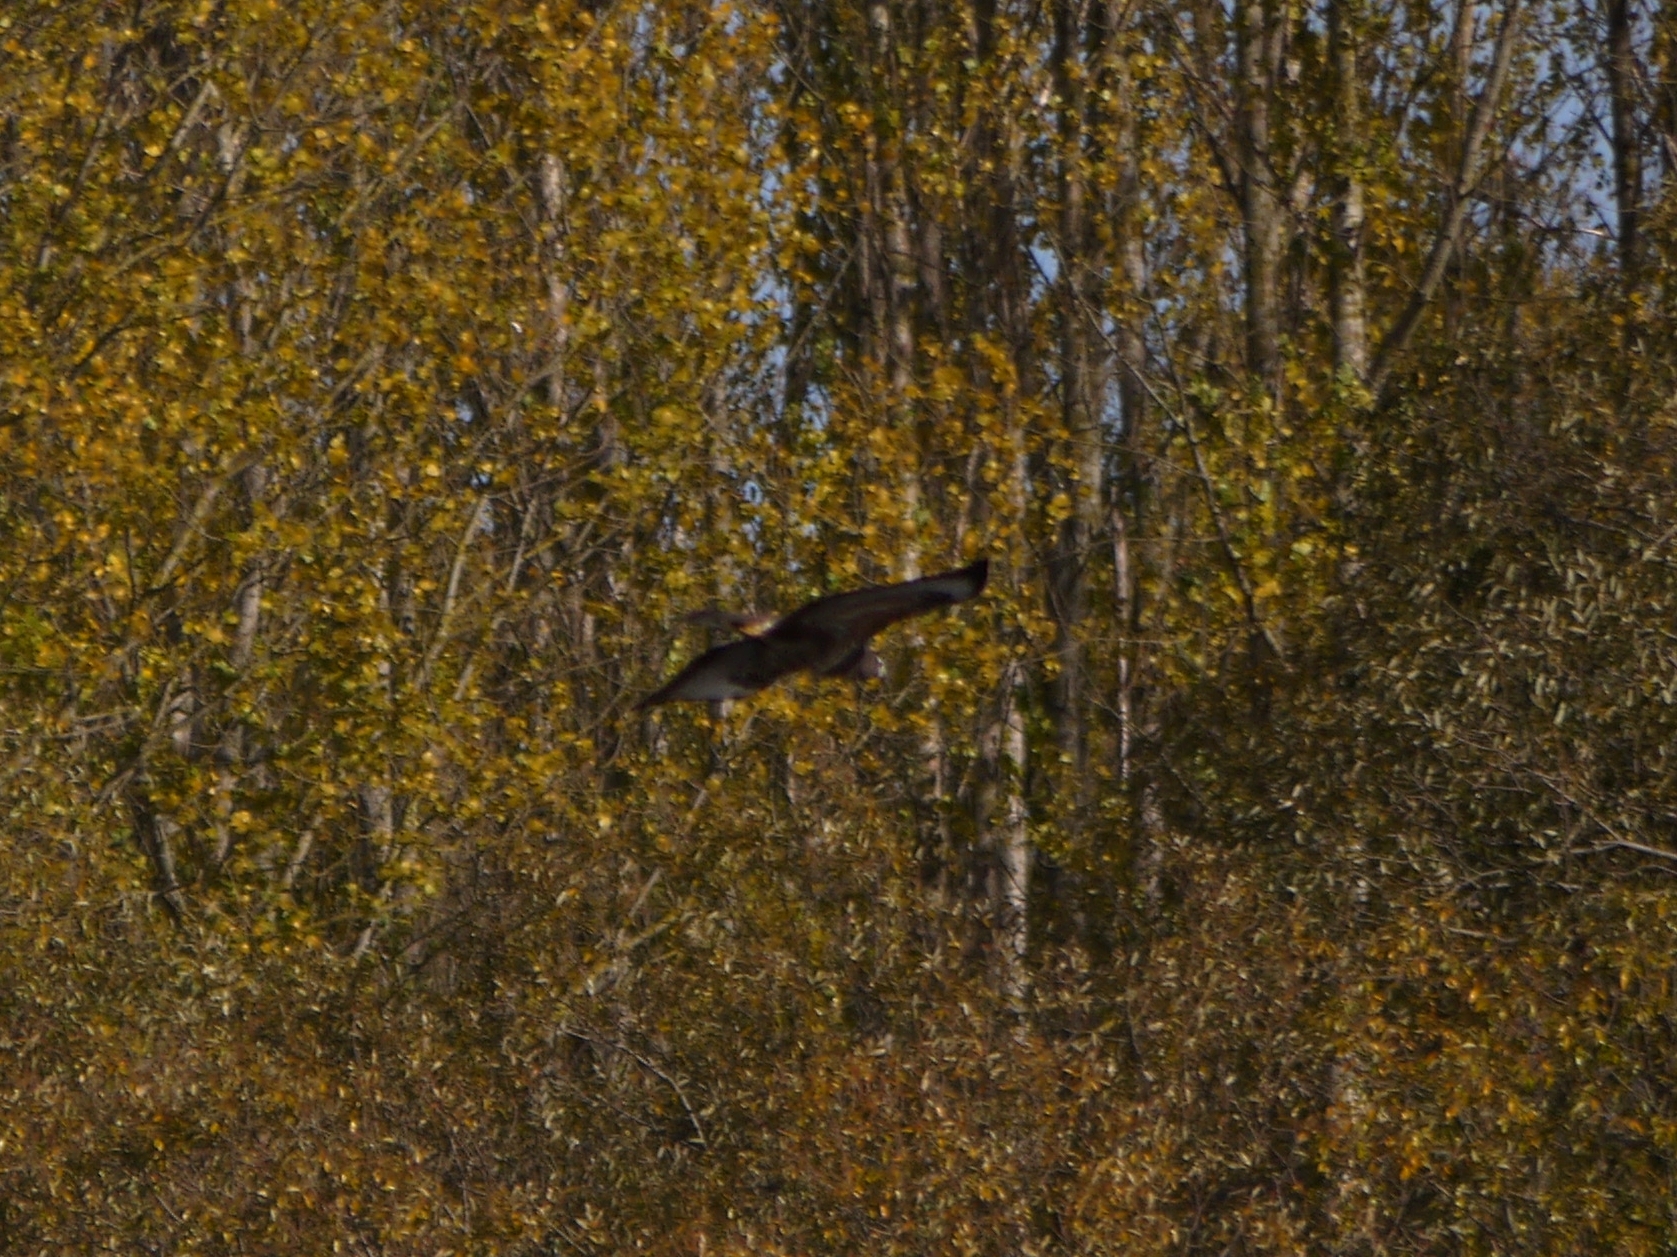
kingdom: Animalia
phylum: Chordata
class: Aves
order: Accipitriformes
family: Accipitridae
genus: Buteo
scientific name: Buteo buteo
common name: Common buzzard
